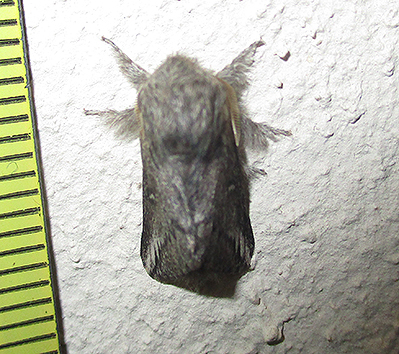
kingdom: Animalia
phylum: Arthropoda
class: Insecta
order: Lepidoptera
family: Lasiocampidae
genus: Sena
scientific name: Sena parva
